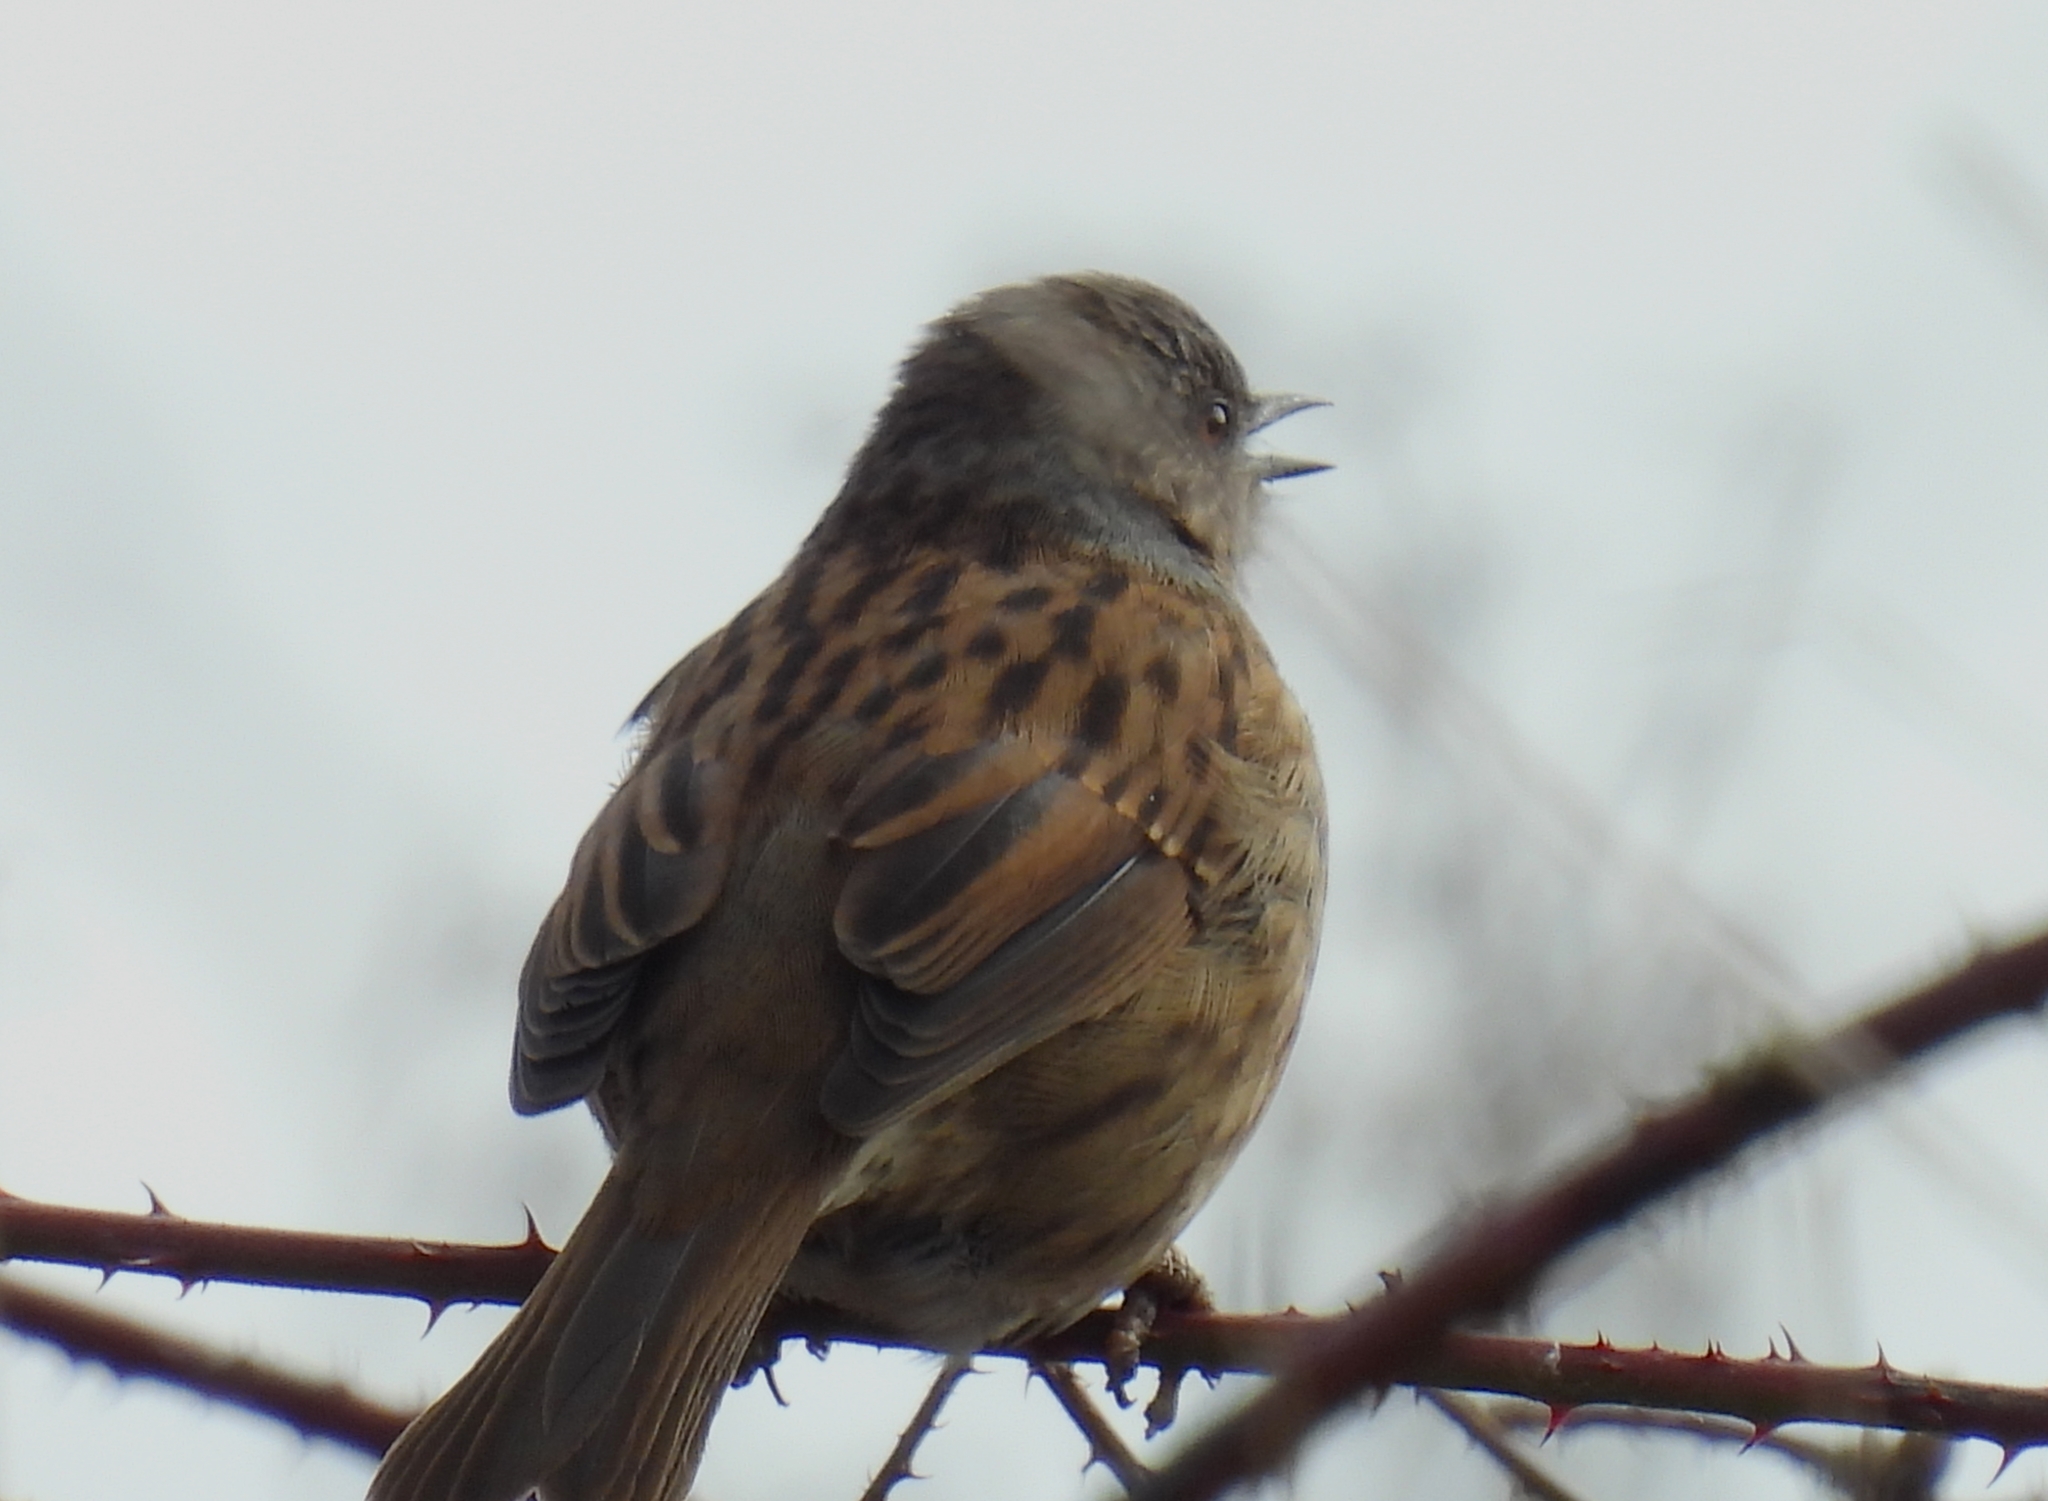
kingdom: Animalia
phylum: Chordata
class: Aves
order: Passeriformes
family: Prunellidae
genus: Prunella
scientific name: Prunella modularis
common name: Dunnock
